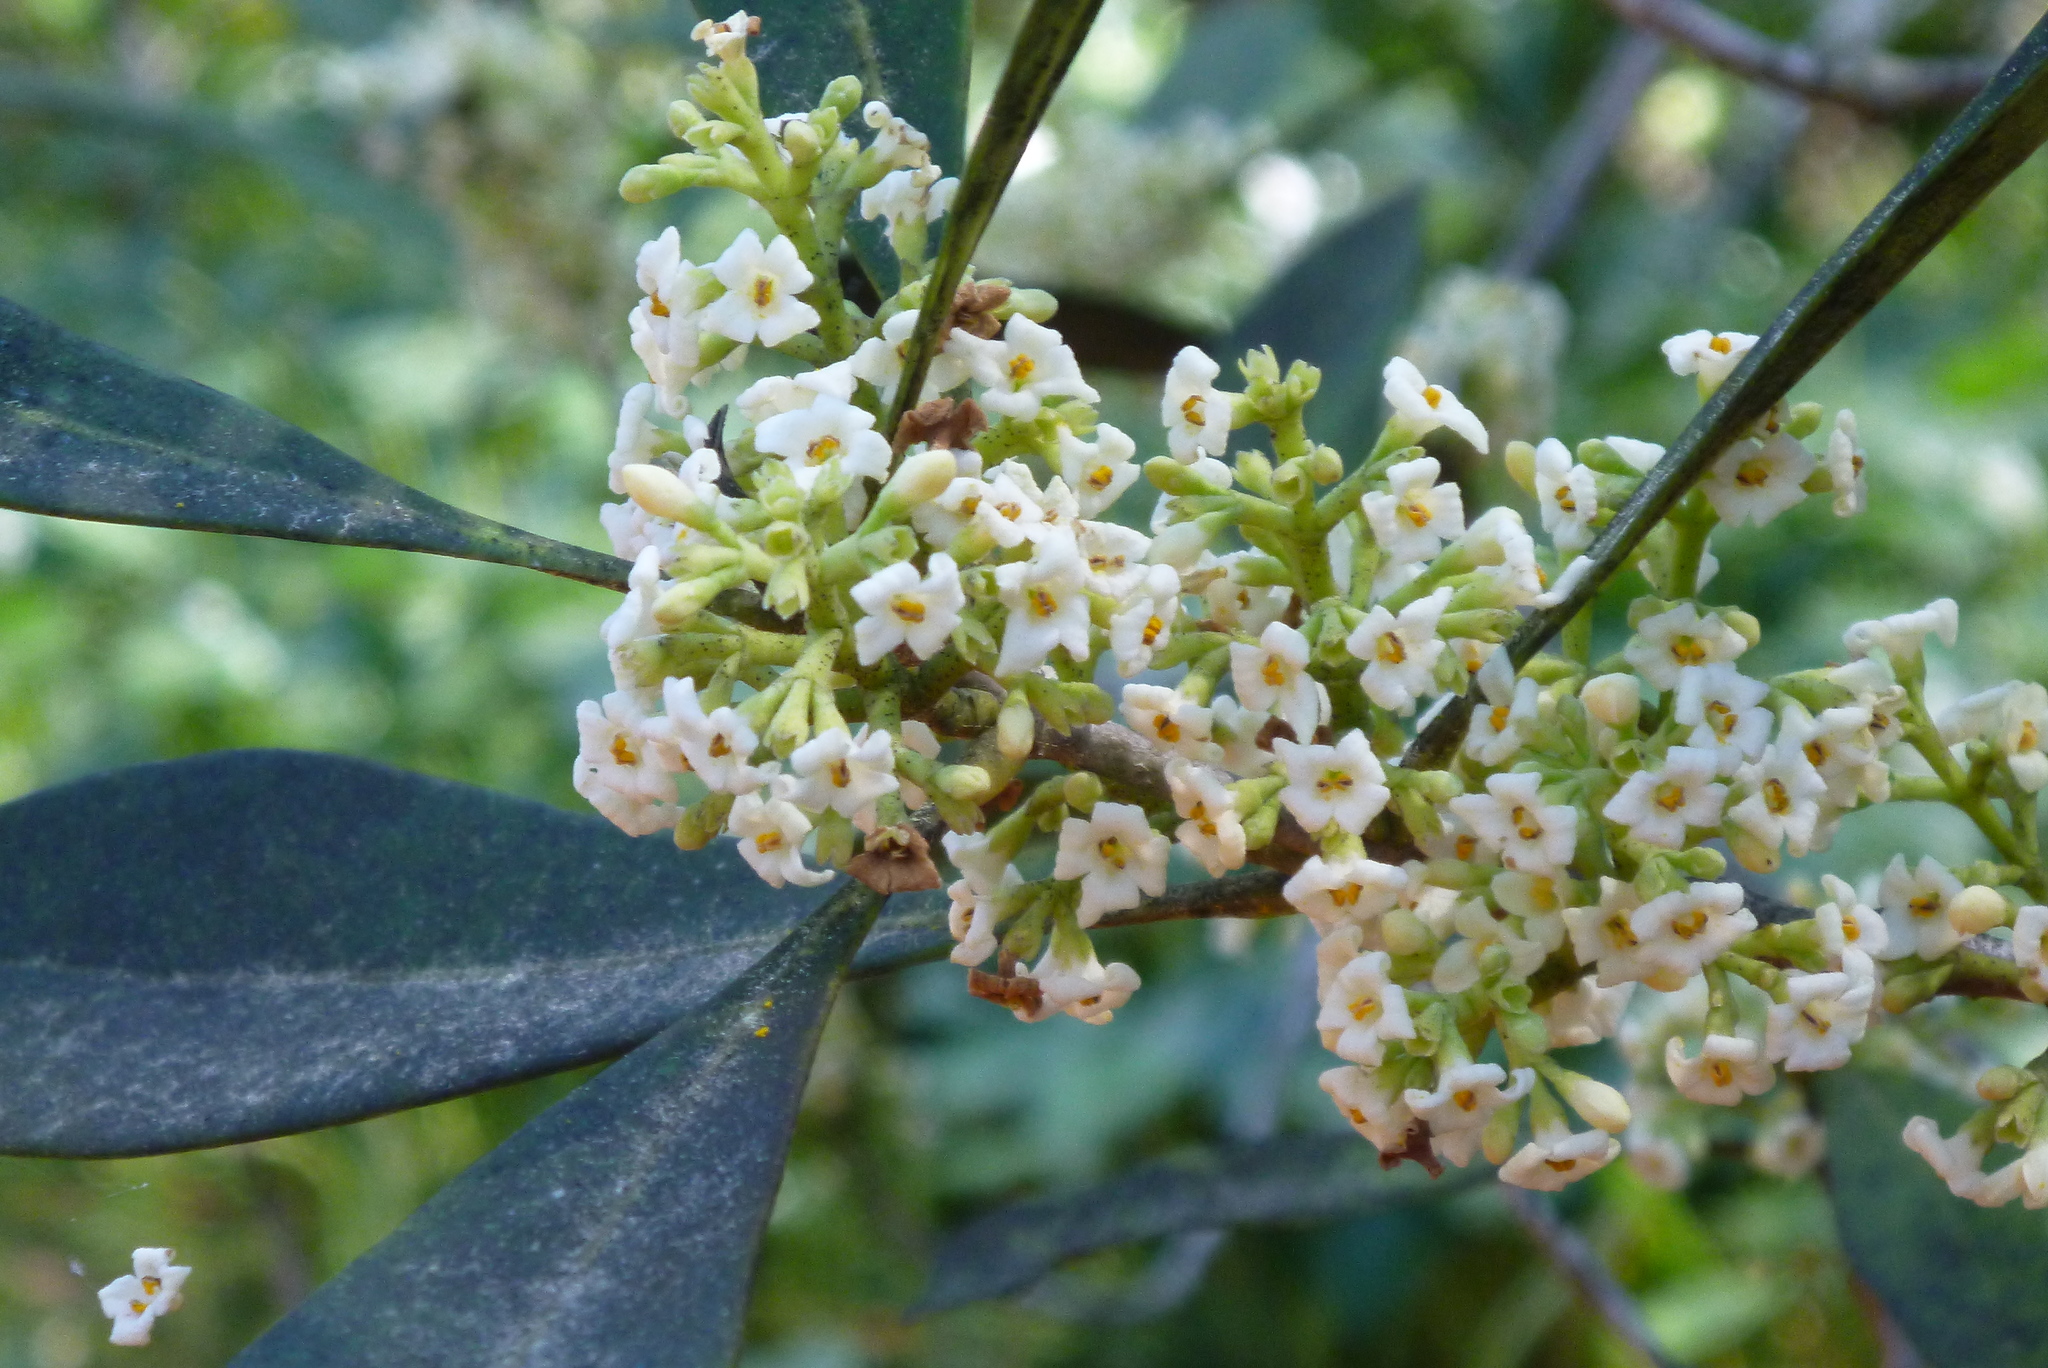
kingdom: Plantae
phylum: Tracheophyta
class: Magnoliopsida
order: Lamiales
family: Oleaceae
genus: Cartrema
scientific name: Cartrema americana
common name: Devilwood
